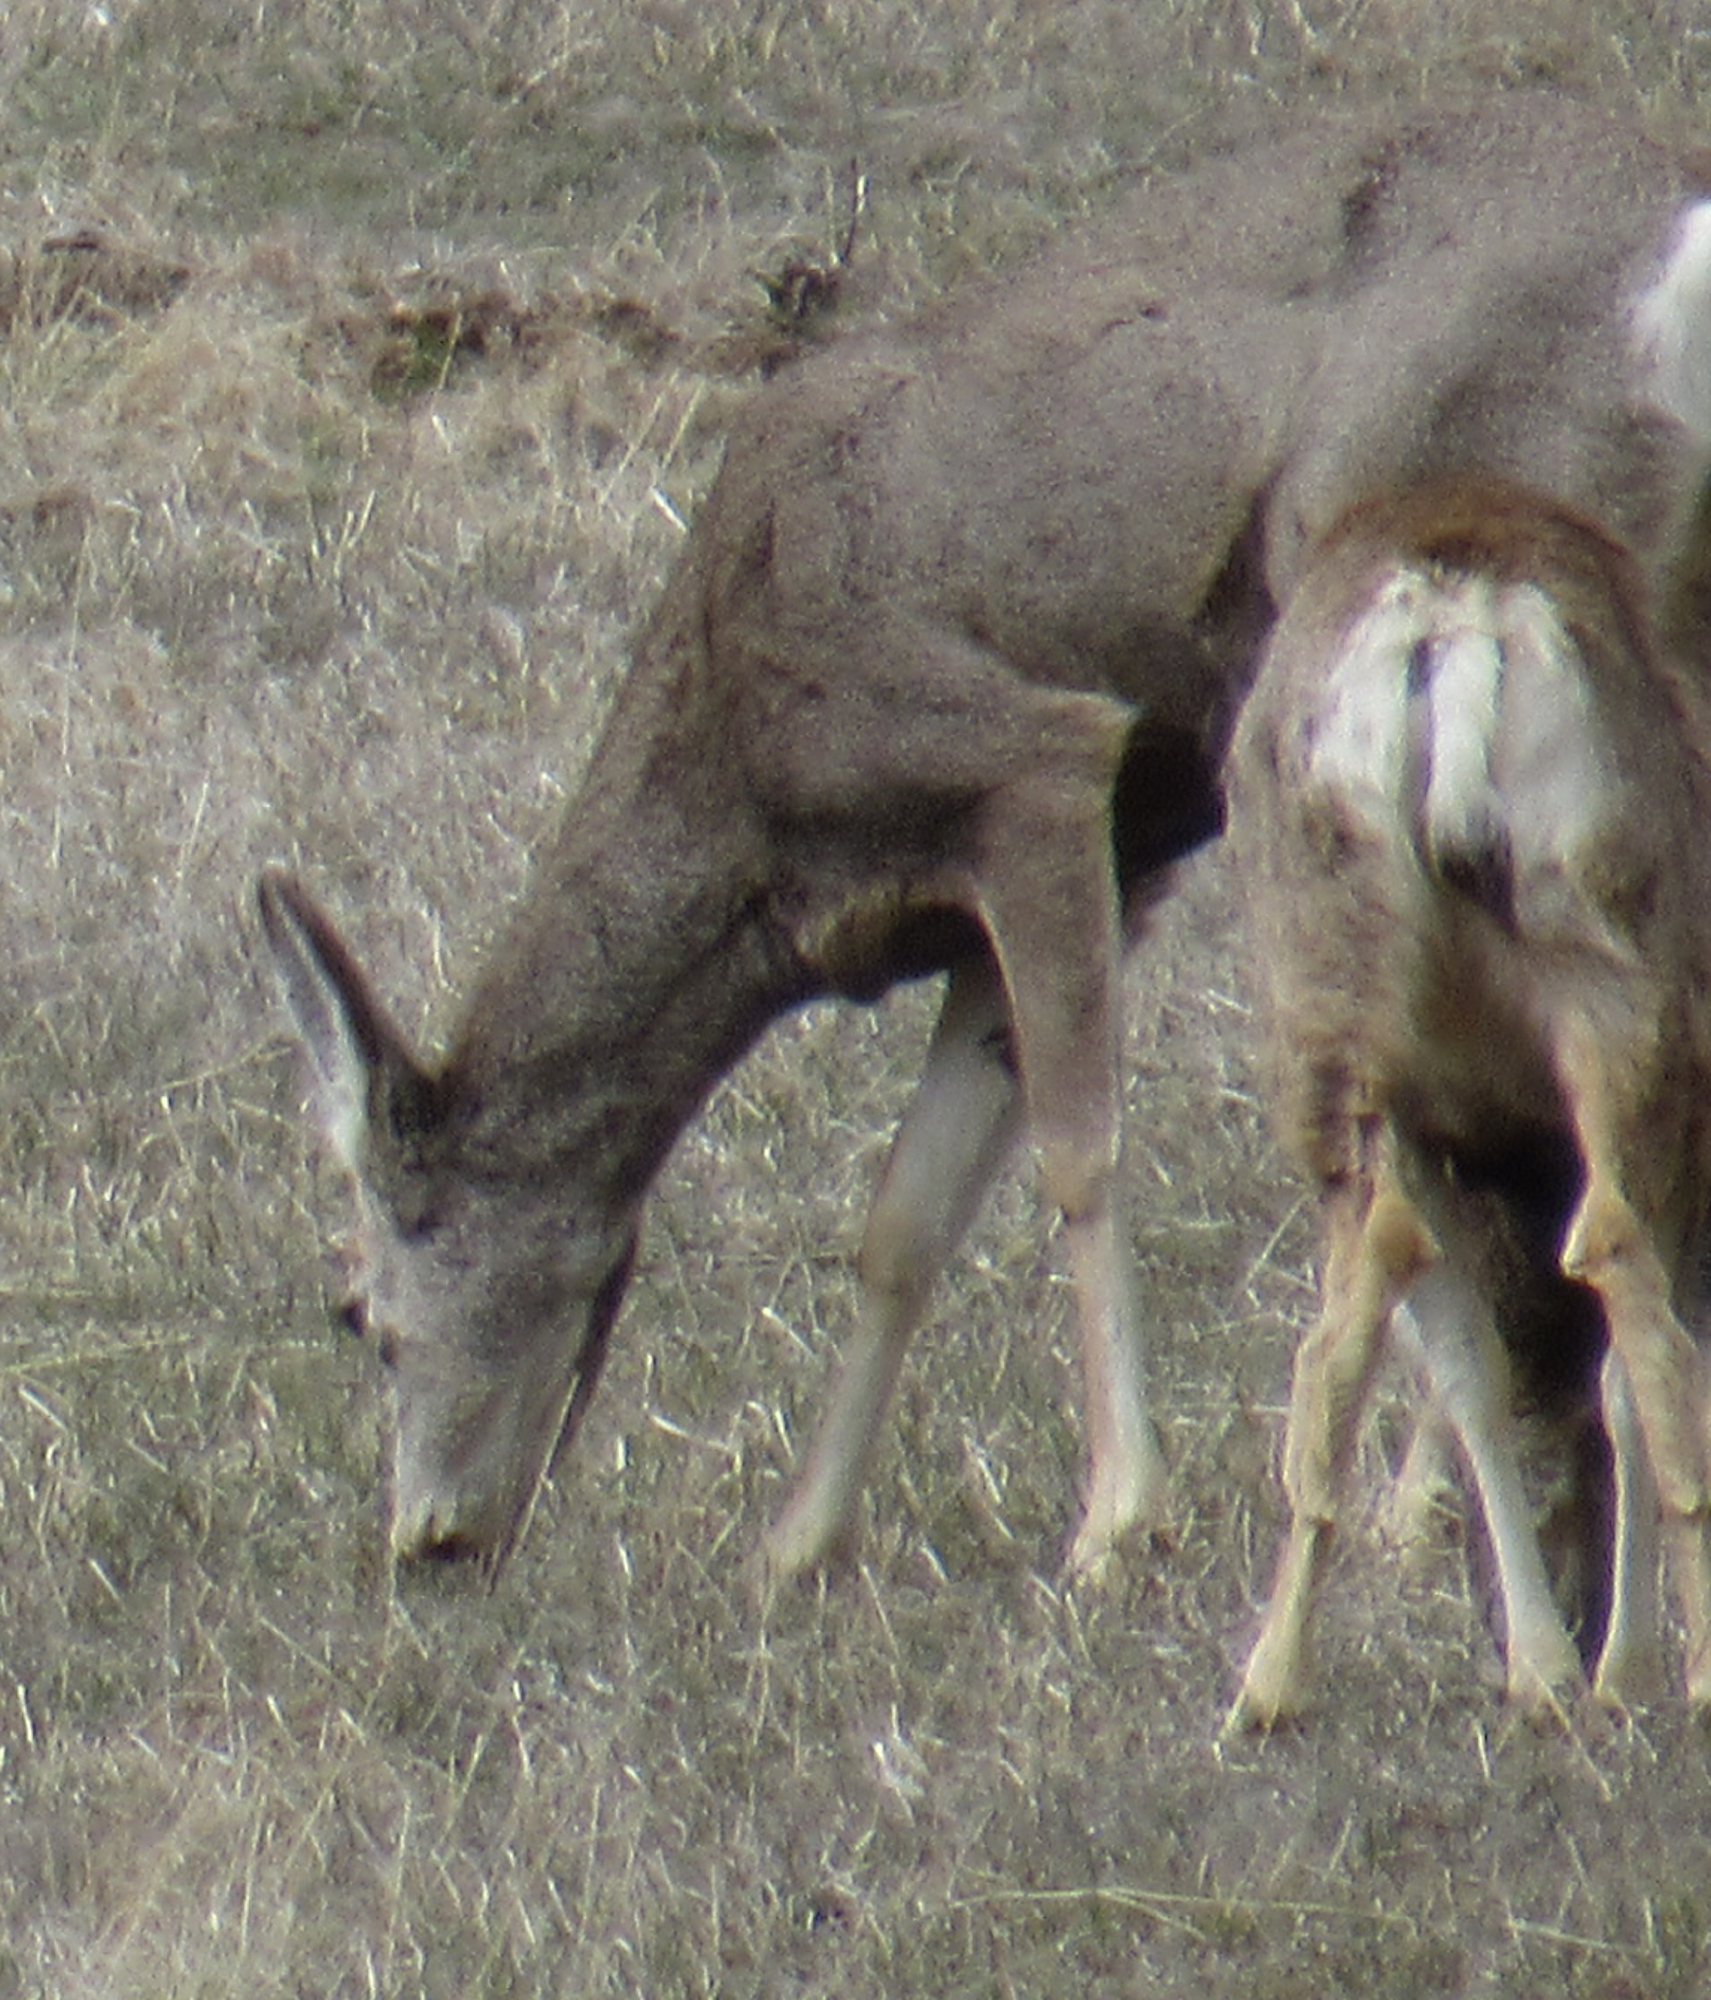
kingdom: Animalia
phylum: Chordata
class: Mammalia
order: Artiodactyla
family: Cervidae
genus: Odocoileus
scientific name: Odocoileus hemionus
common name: Mule deer
